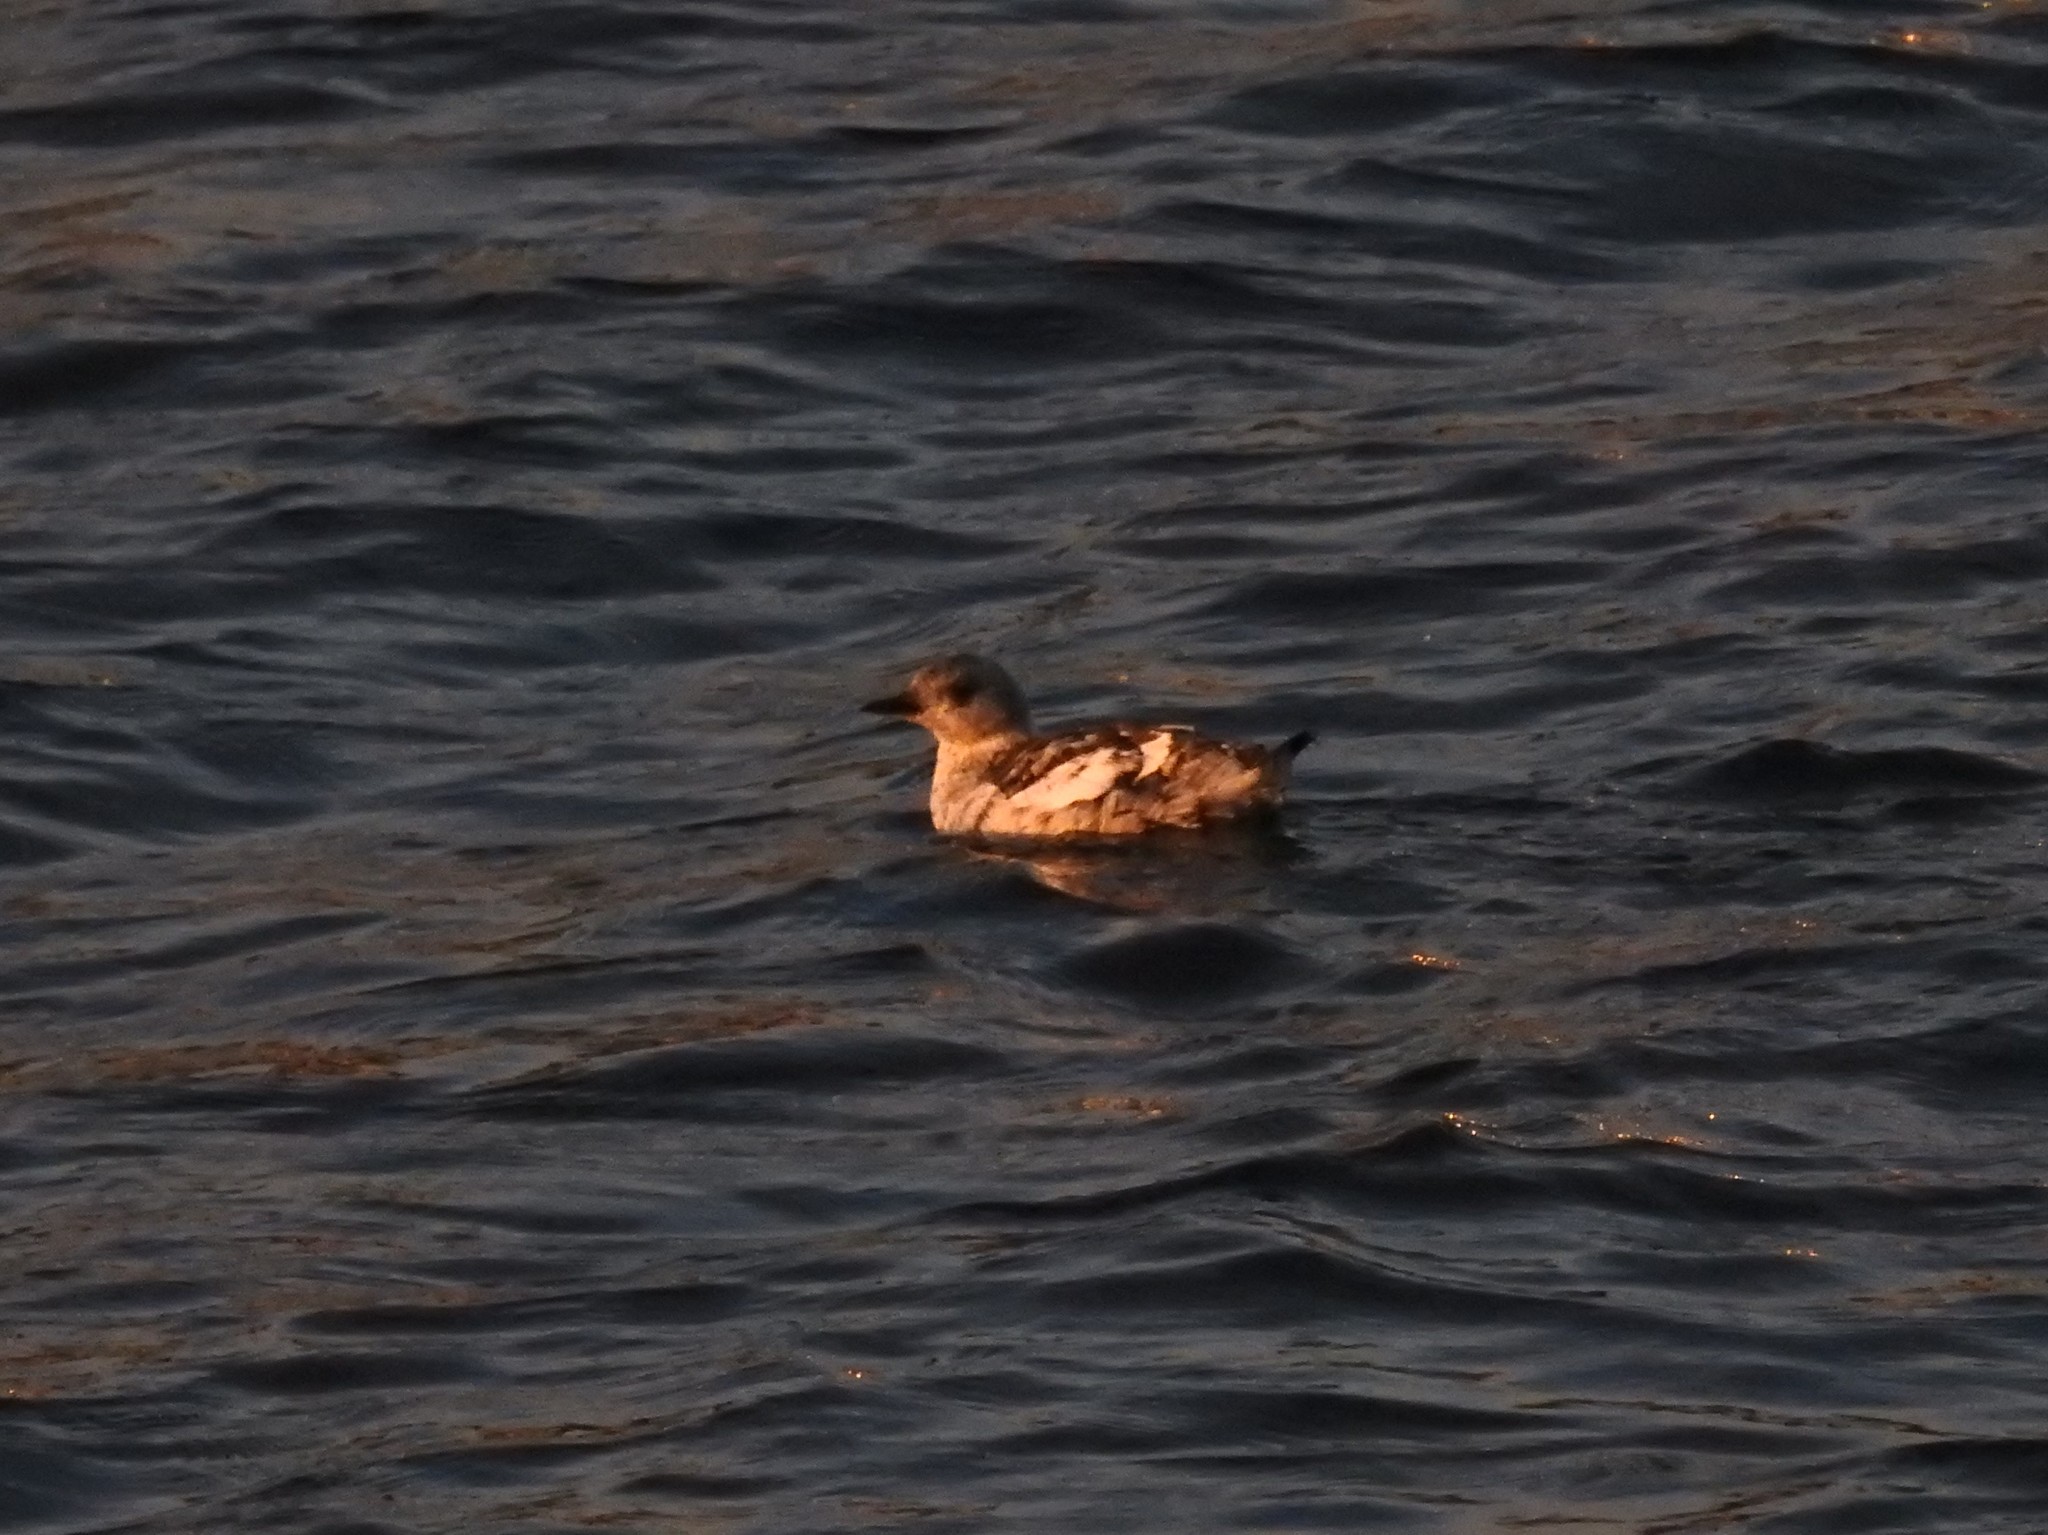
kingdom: Animalia
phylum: Chordata
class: Aves
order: Charadriiformes
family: Alcidae
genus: Cepphus
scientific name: Cepphus grylle
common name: Black guillemot
